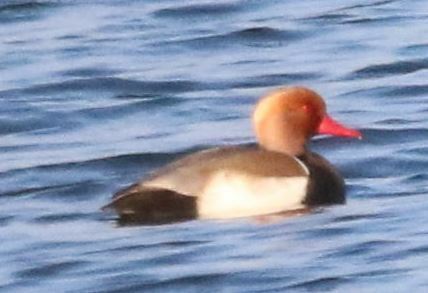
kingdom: Animalia
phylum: Chordata
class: Aves
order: Anseriformes
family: Anatidae
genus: Netta
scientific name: Netta rufina
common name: Red-crested pochard
